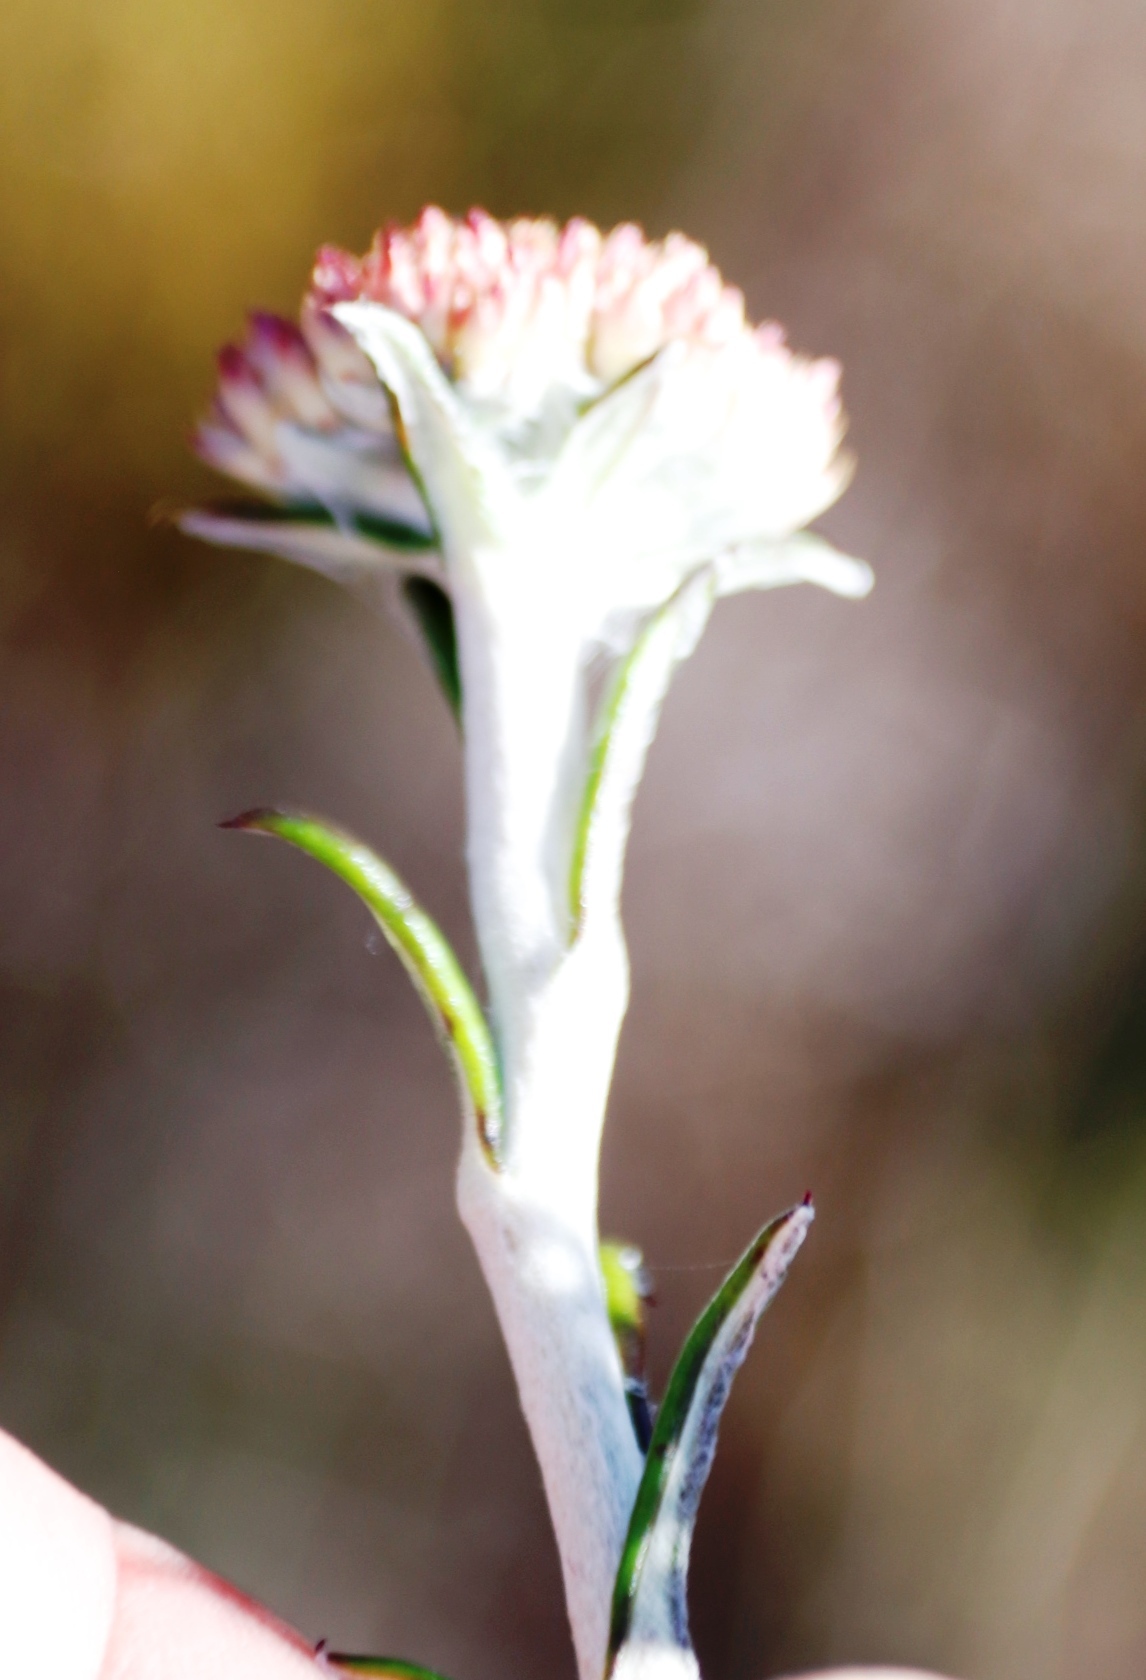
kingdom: Plantae
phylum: Tracheophyta
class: Magnoliopsida
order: Asterales
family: Asteraceae
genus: Anaxeton
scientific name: Anaxeton arborescens
